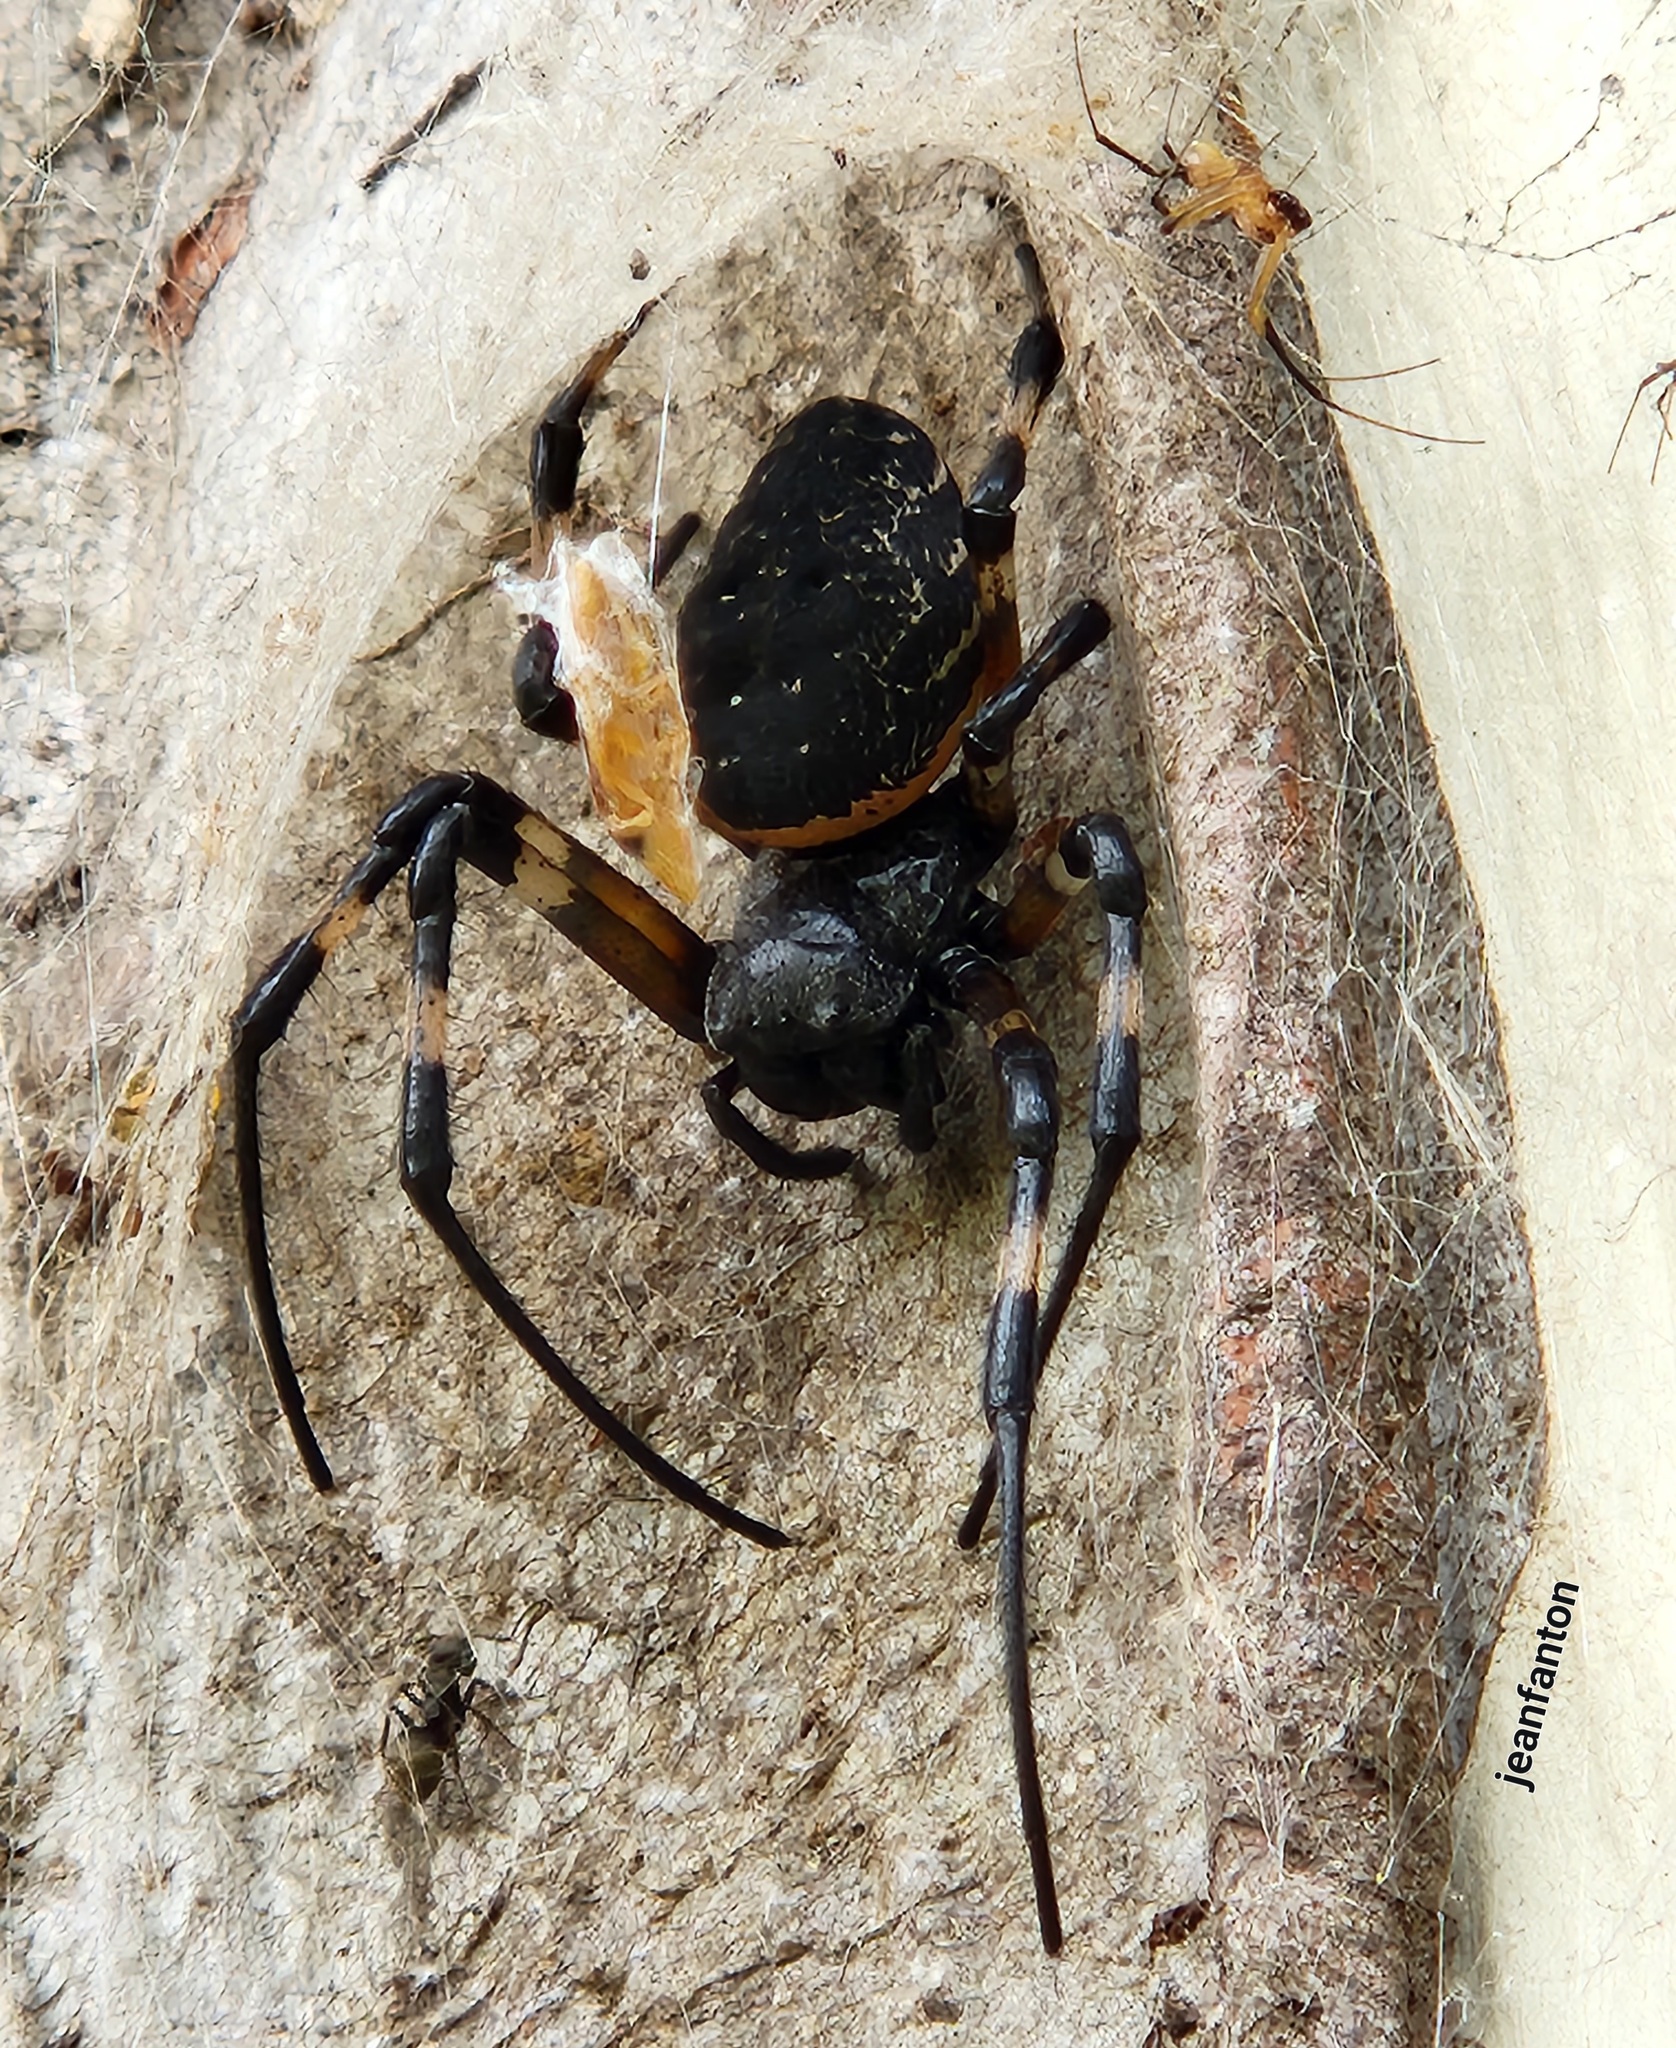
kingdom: Animalia
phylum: Arthropoda
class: Arachnida
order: Araneae
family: Araneidae
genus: Nephilingis
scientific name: Nephilingis cruentata
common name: African hermit spider
